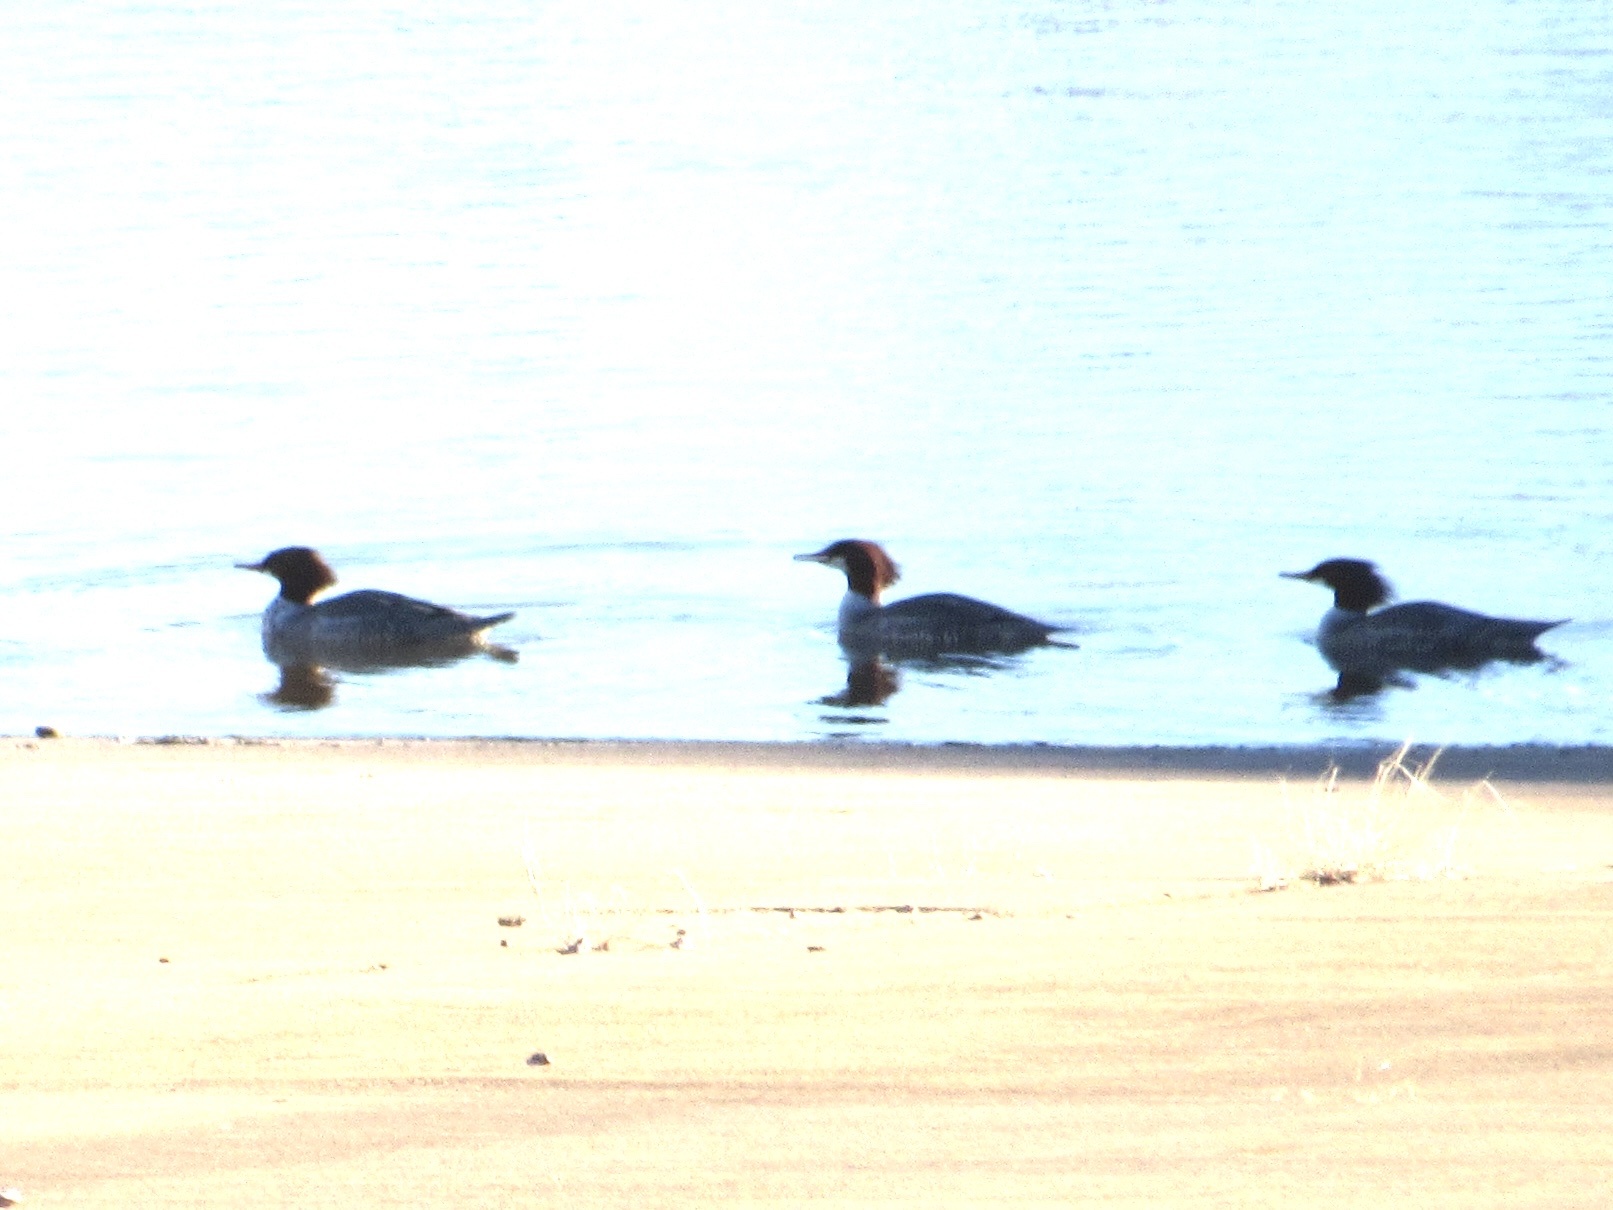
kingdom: Animalia
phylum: Chordata
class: Aves
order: Anseriformes
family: Anatidae
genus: Mergus
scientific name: Mergus merganser
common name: Common merganser
